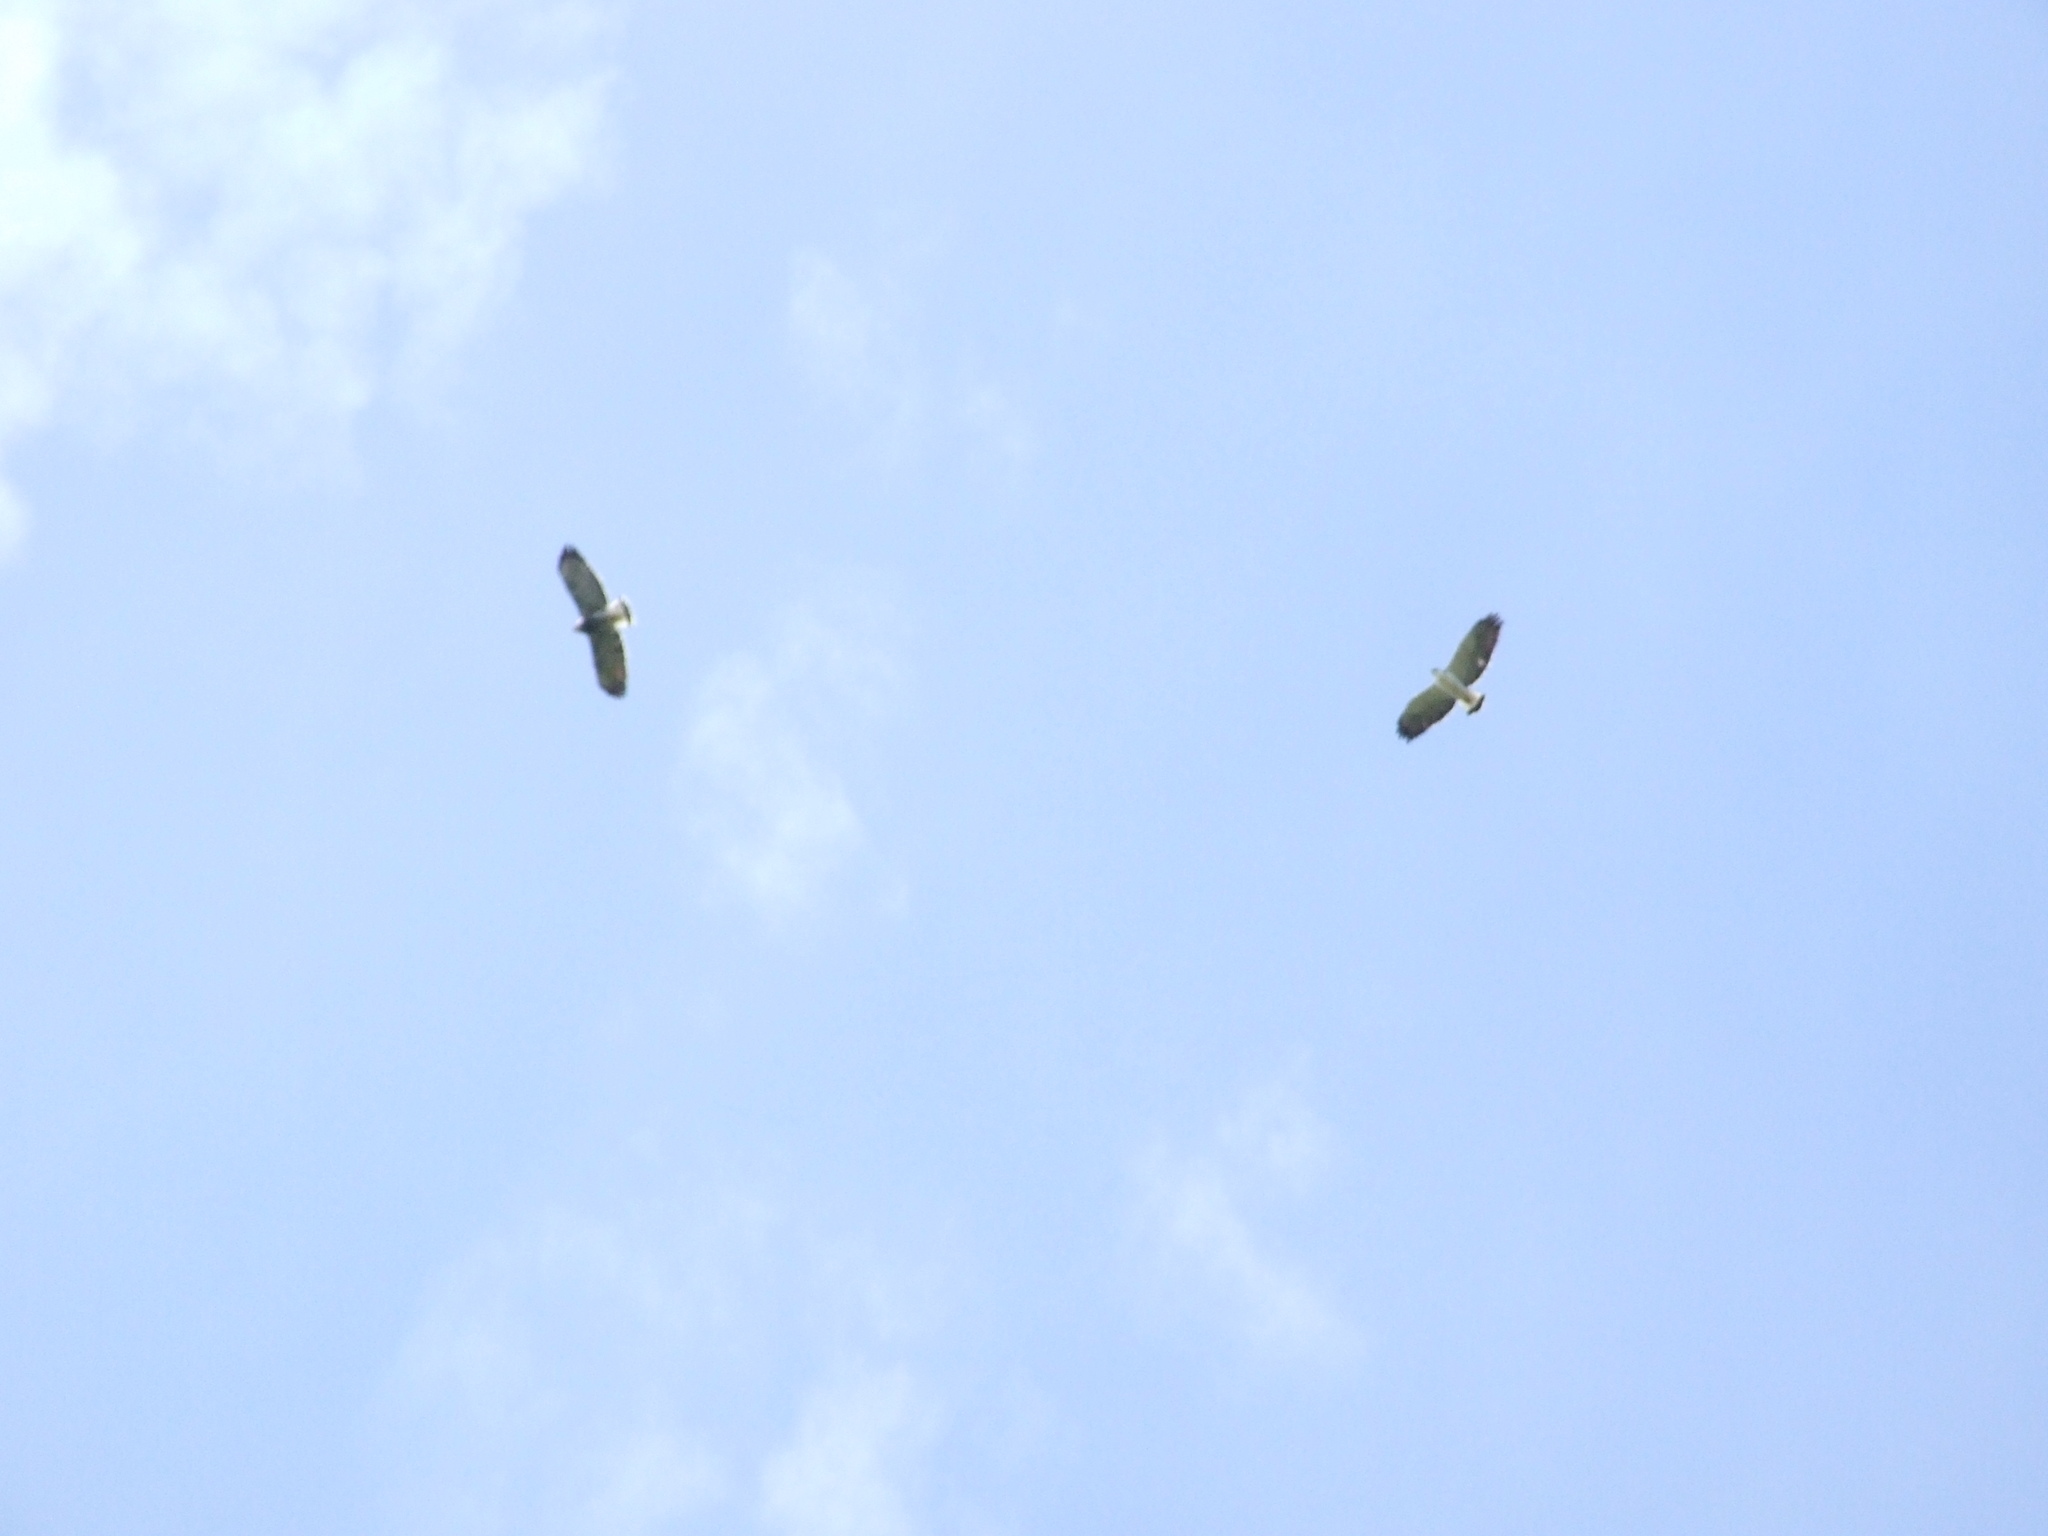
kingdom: Animalia
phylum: Chordata
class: Aves
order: Accipitriformes
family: Accipitridae
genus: Buteo
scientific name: Buteo polyosoma
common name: Variable hawk
